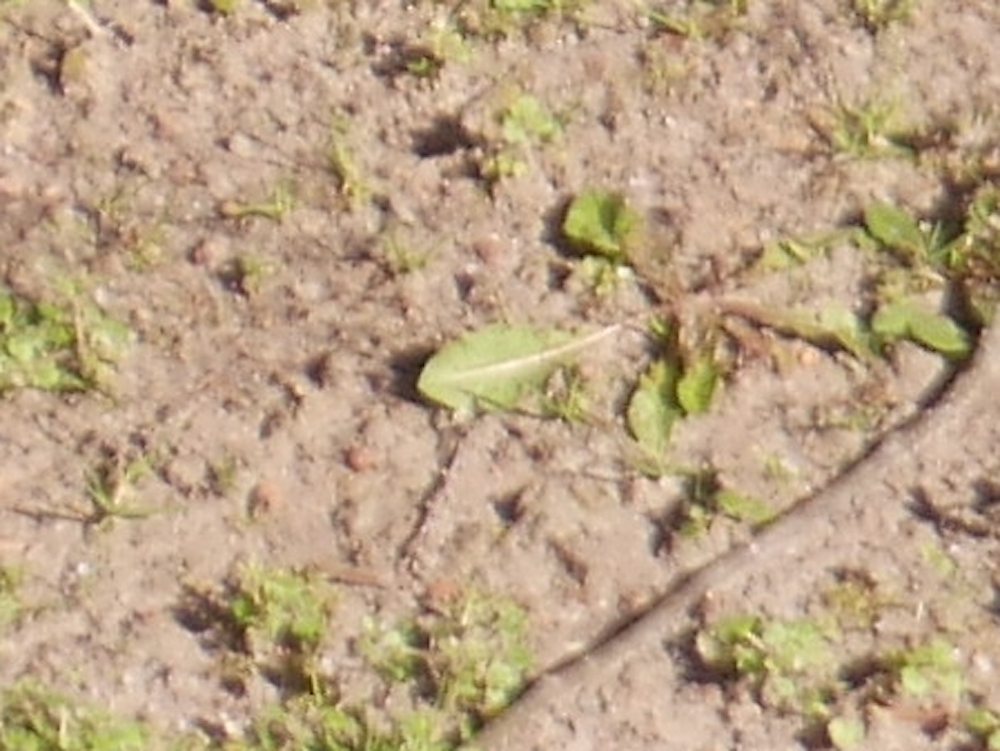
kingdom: Plantae
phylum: Tracheophyta
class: Magnoliopsida
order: Asterales
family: Asteraceae
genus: Taraxacum
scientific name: Taraxacum officinale
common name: Common dandelion
